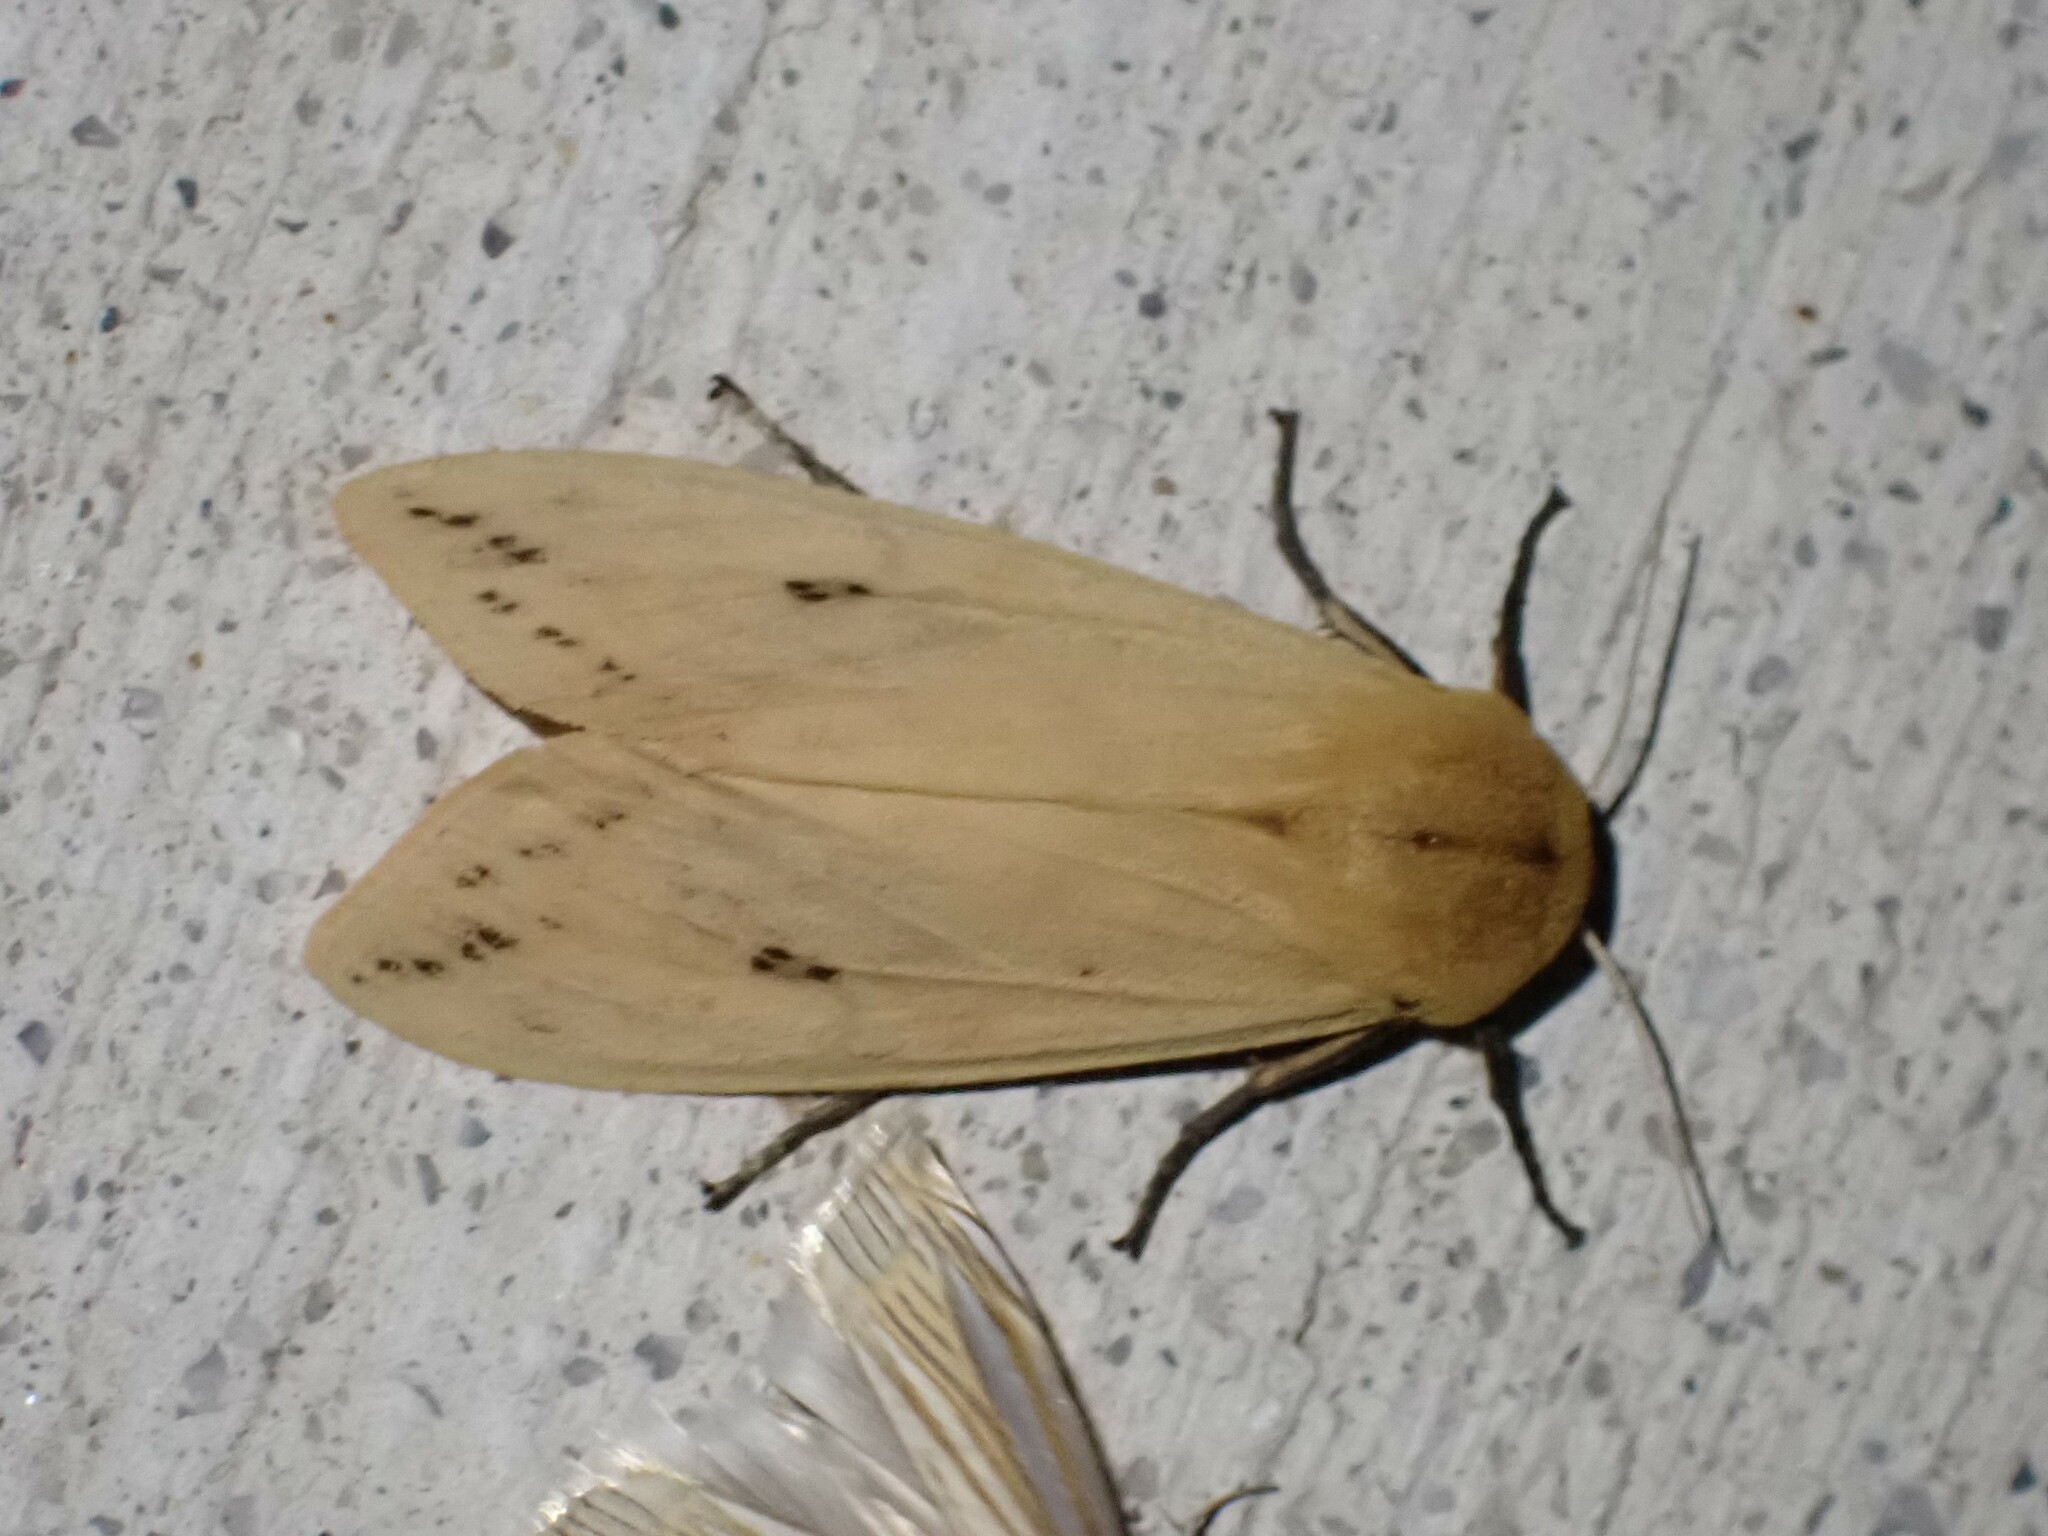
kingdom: Animalia
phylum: Arthropoda
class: Insecta
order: Lepidoptera
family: Erebidae
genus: Pyrrharctia
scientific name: Pyrrharctia isabella
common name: Isabella tiger moth
